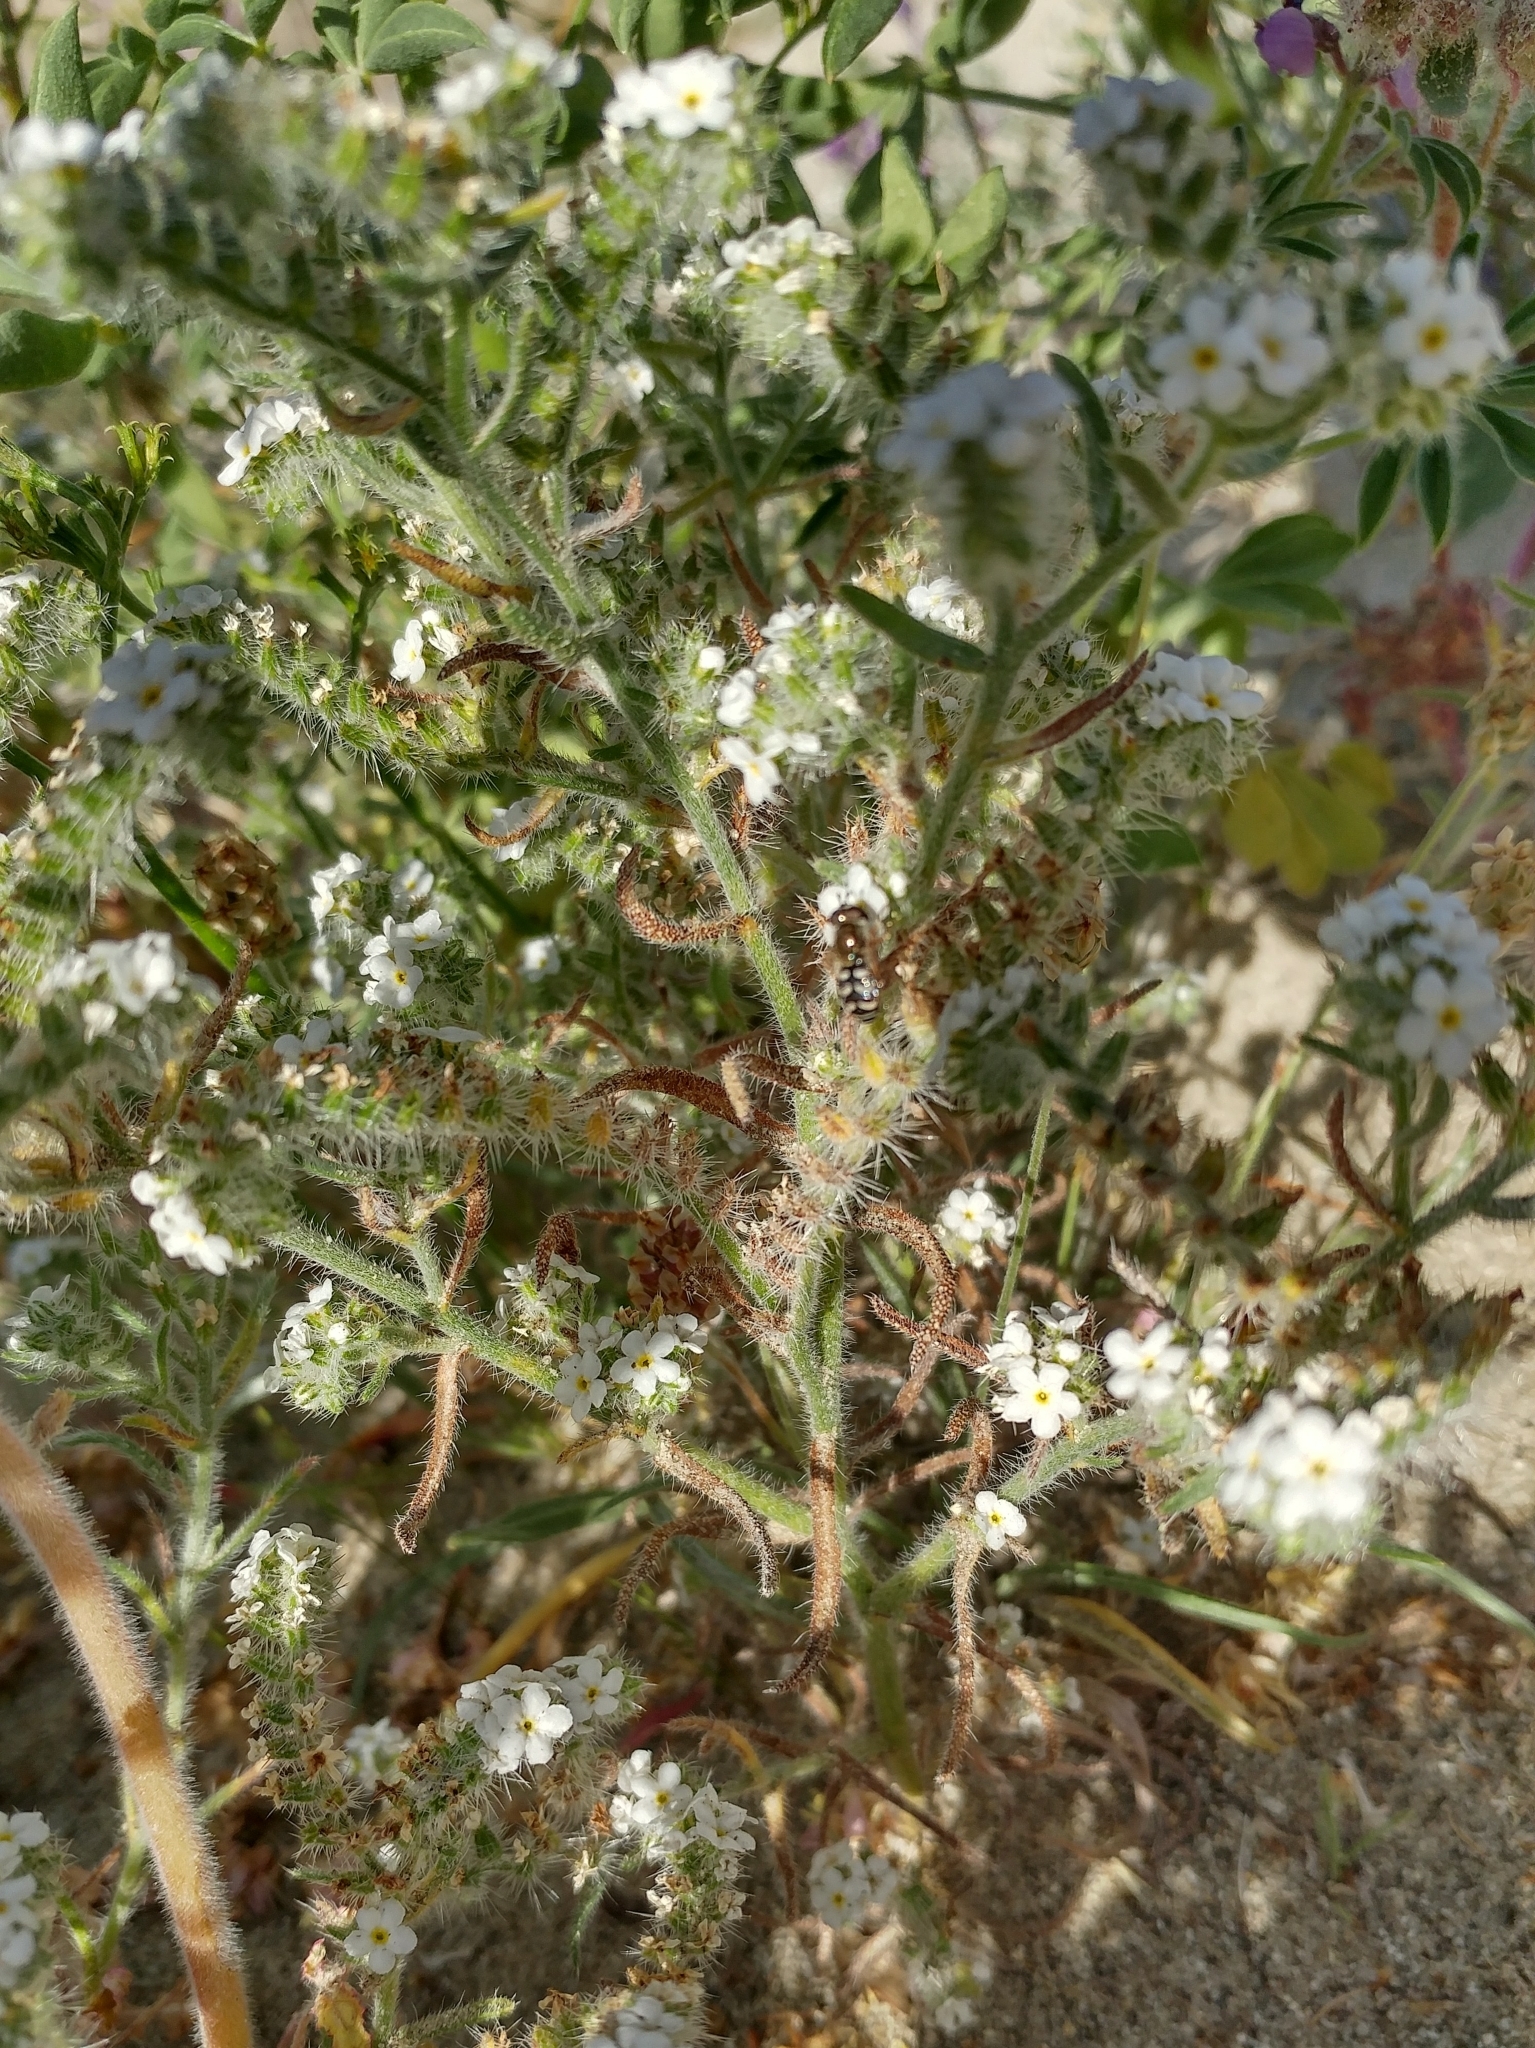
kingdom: Animalia
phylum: Arthropoda
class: Insecta
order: Diptera
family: Syrphidae
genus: Eupeodes
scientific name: Eupeodes volucris
